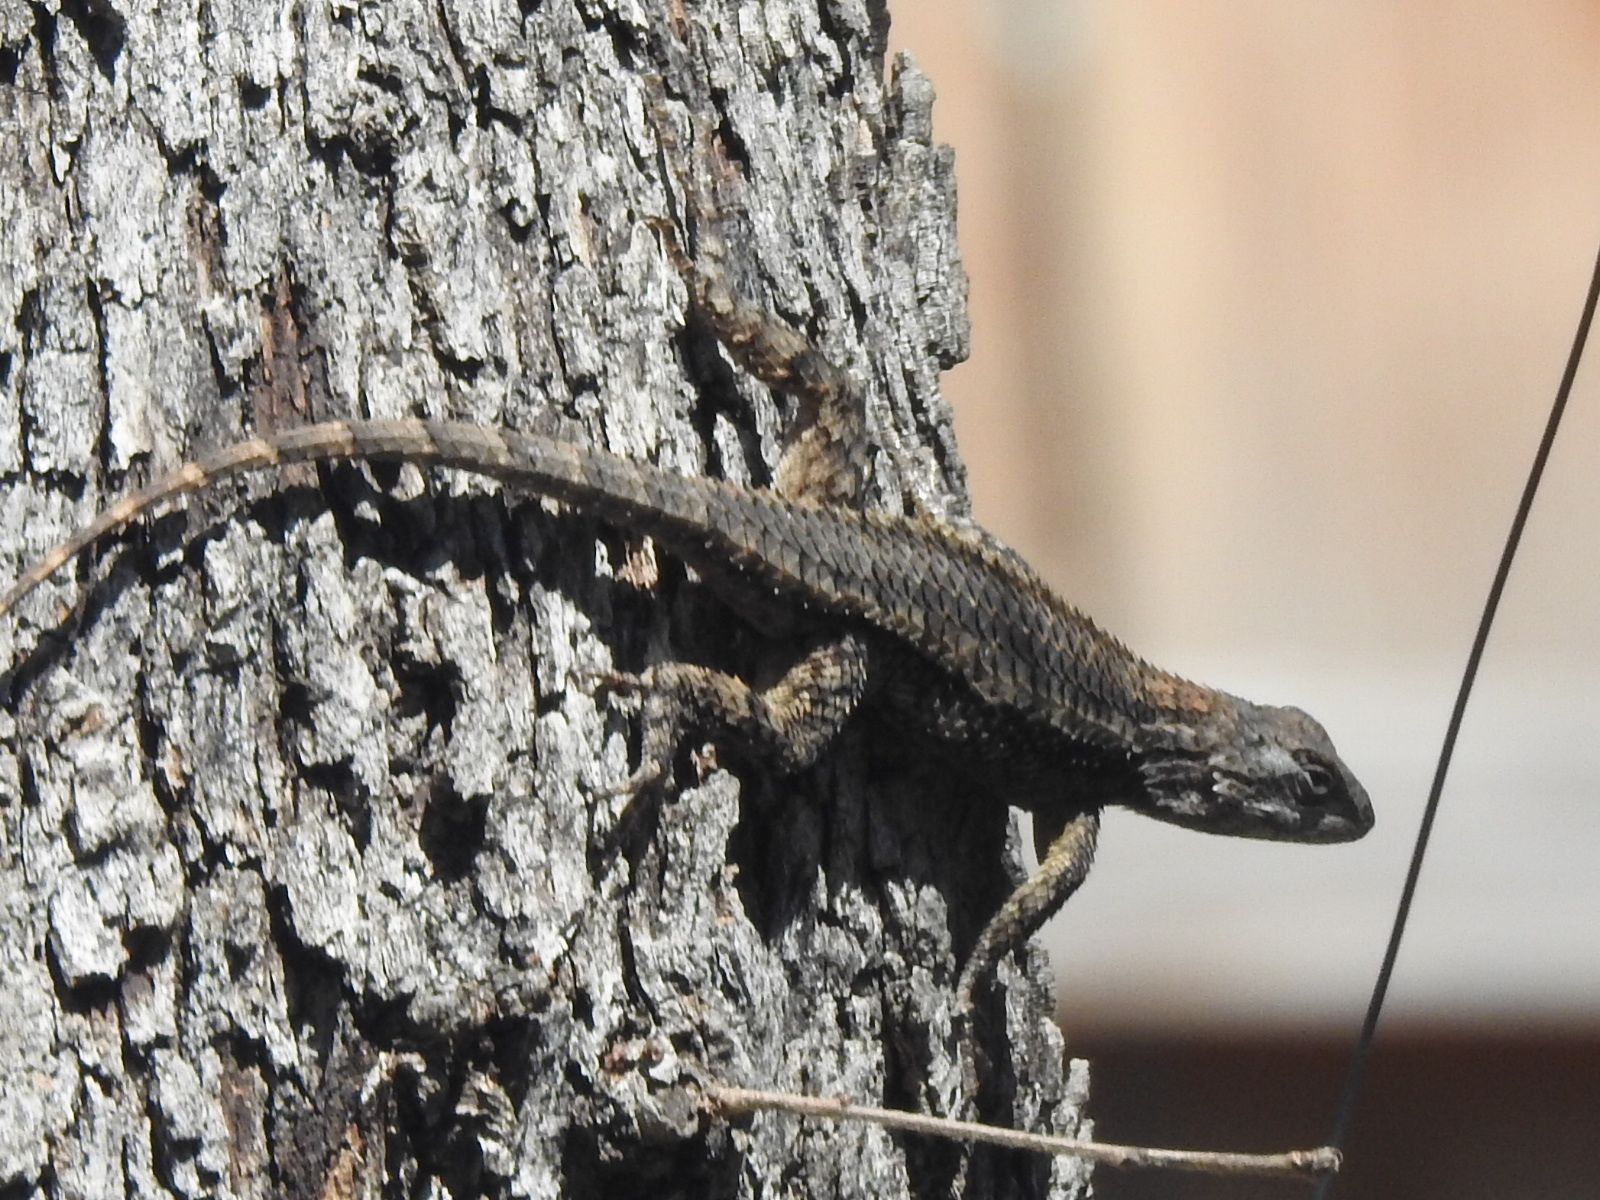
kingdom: Animalia
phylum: Chordata
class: Squamata
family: Phrynosomatidae
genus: Sceloporus
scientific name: Sceloporus olivaceus
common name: Texas spiny lizard
